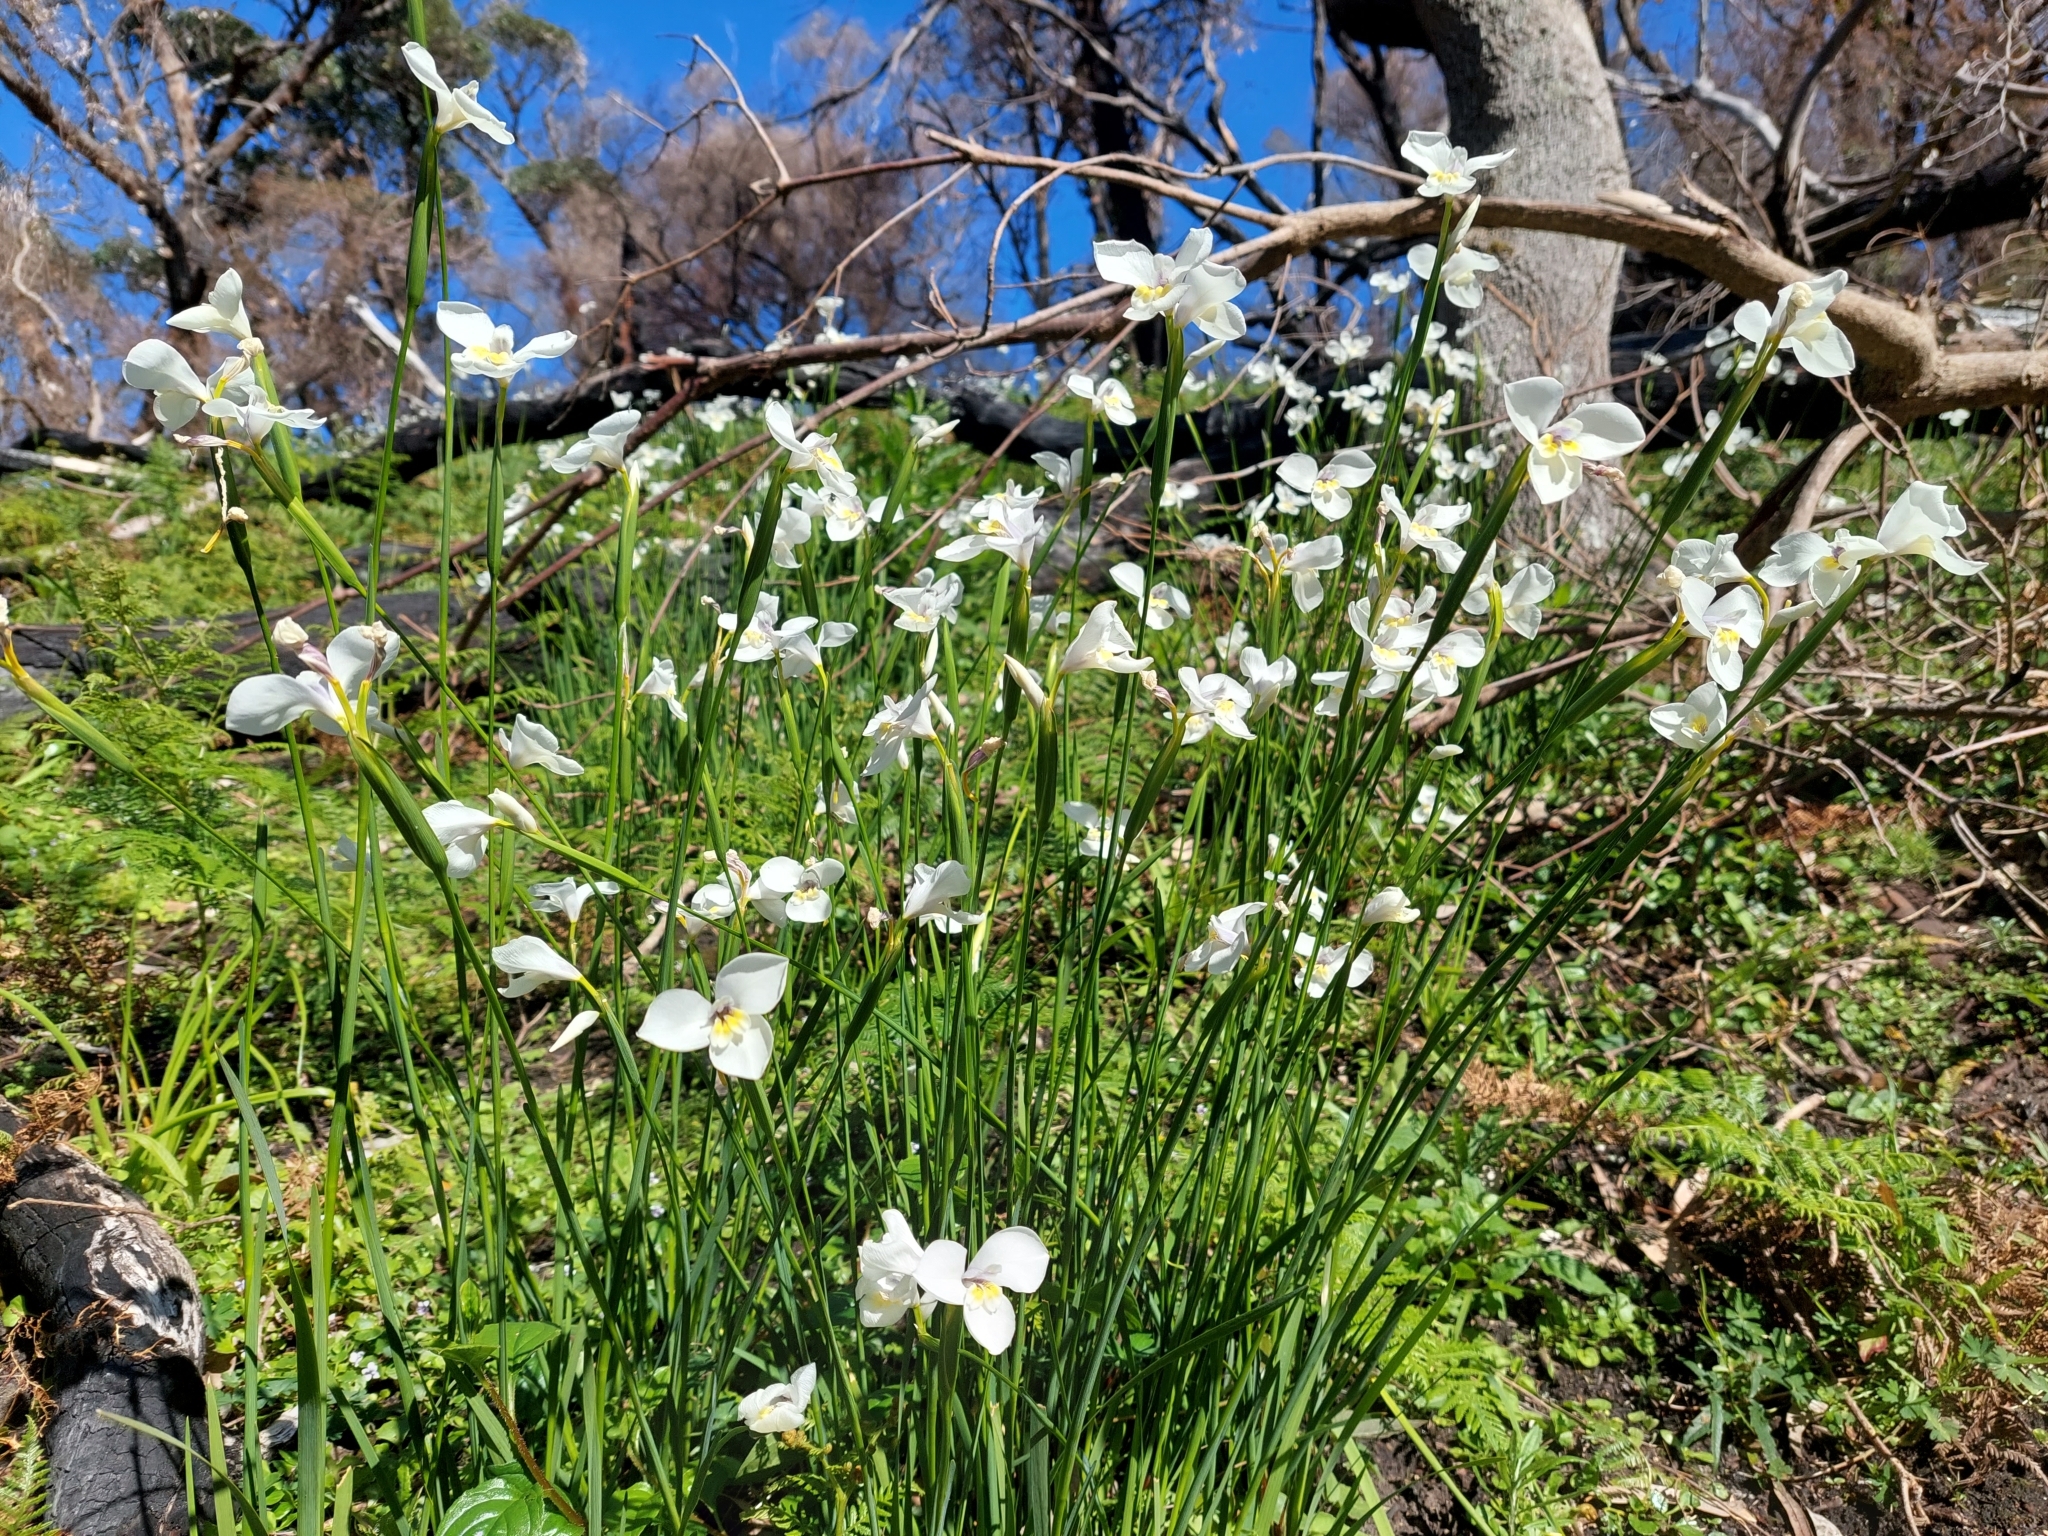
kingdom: Plantae
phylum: Tracheophyta
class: Liliopsida
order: Asparagales
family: Iridaceae
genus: Diplarrena
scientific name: Diplarrena moraea
